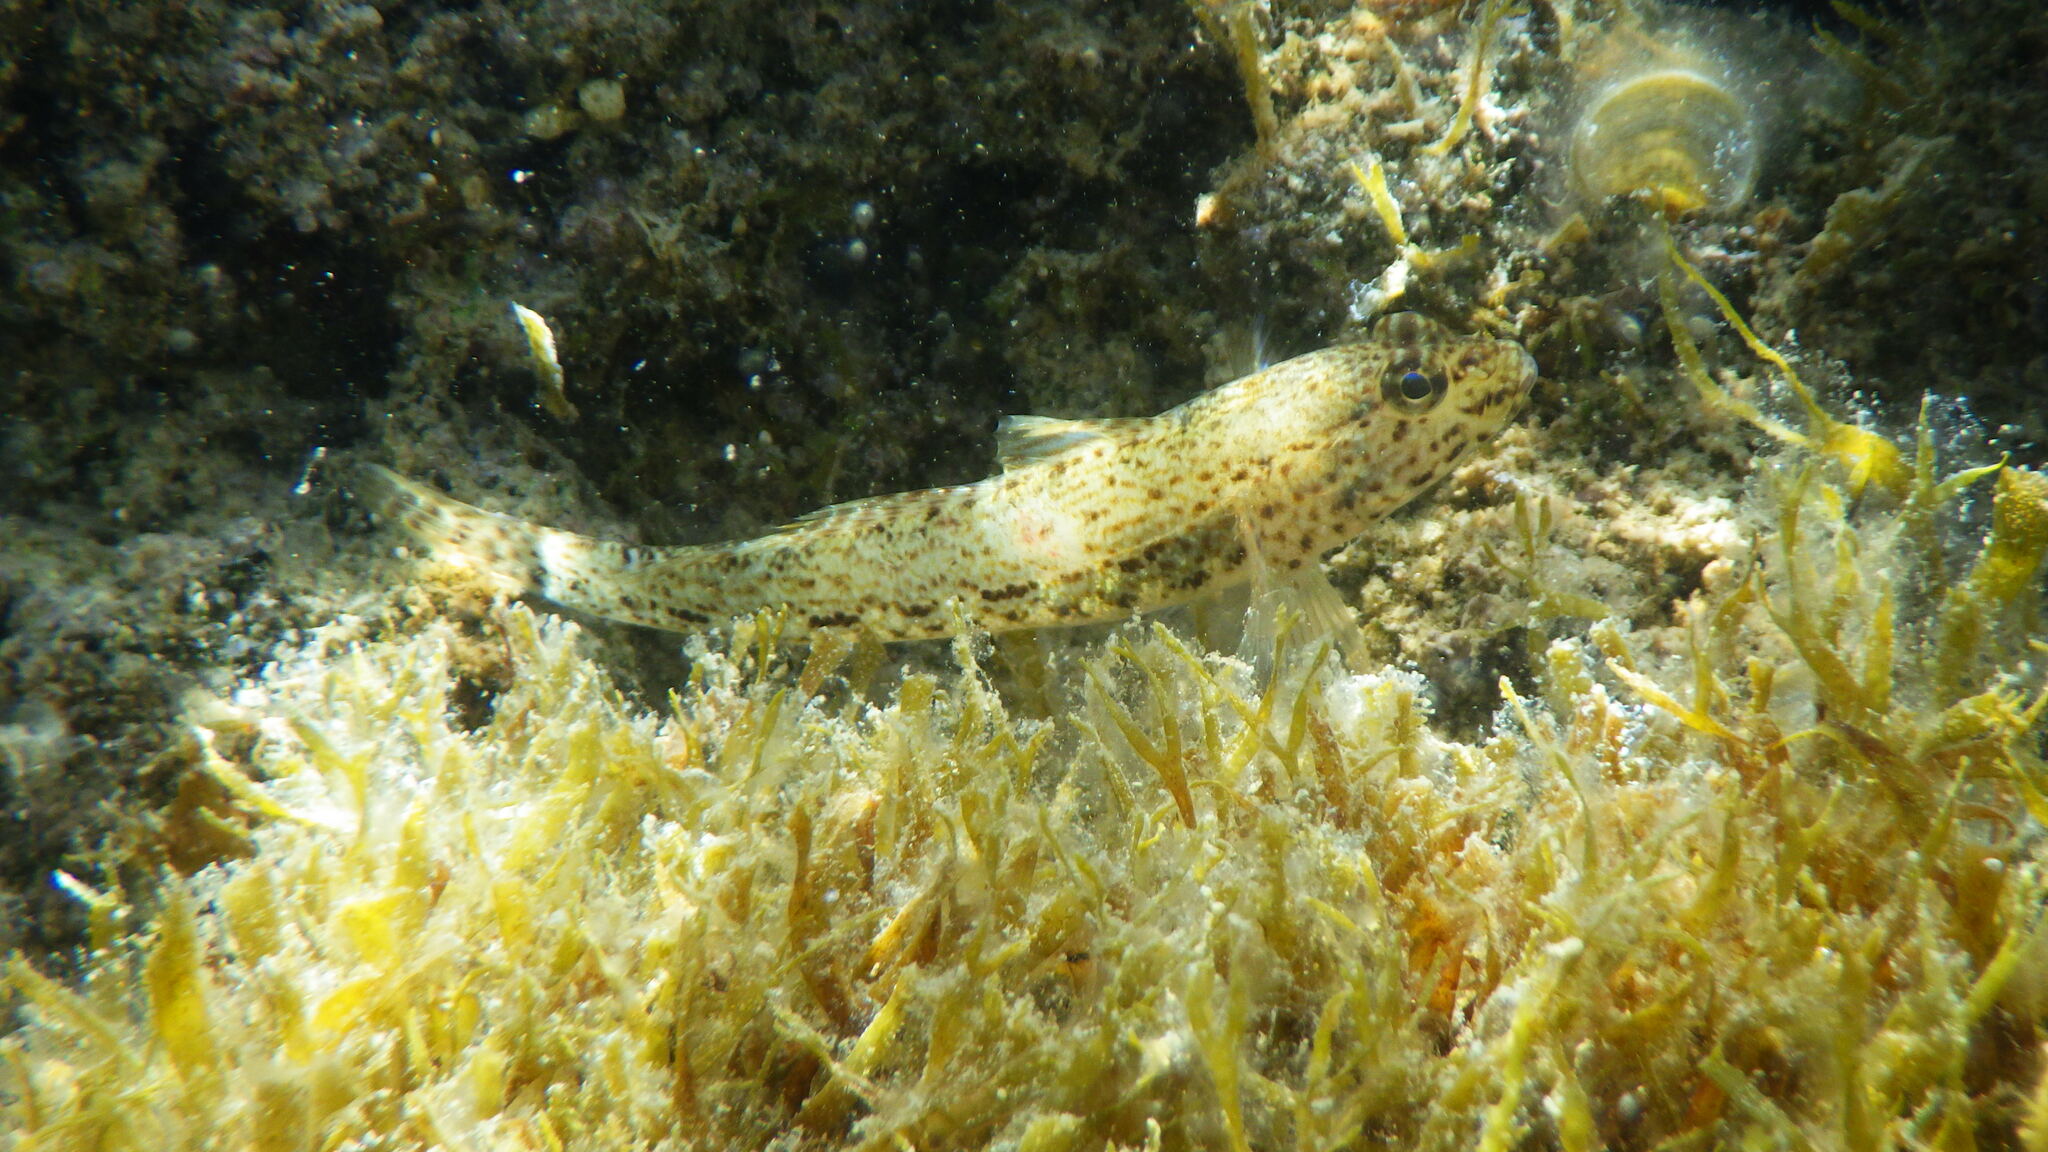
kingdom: Animalia
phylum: Chordata
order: Perciformes
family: Gobiidae
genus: Gobius
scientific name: Gobius incognitus
